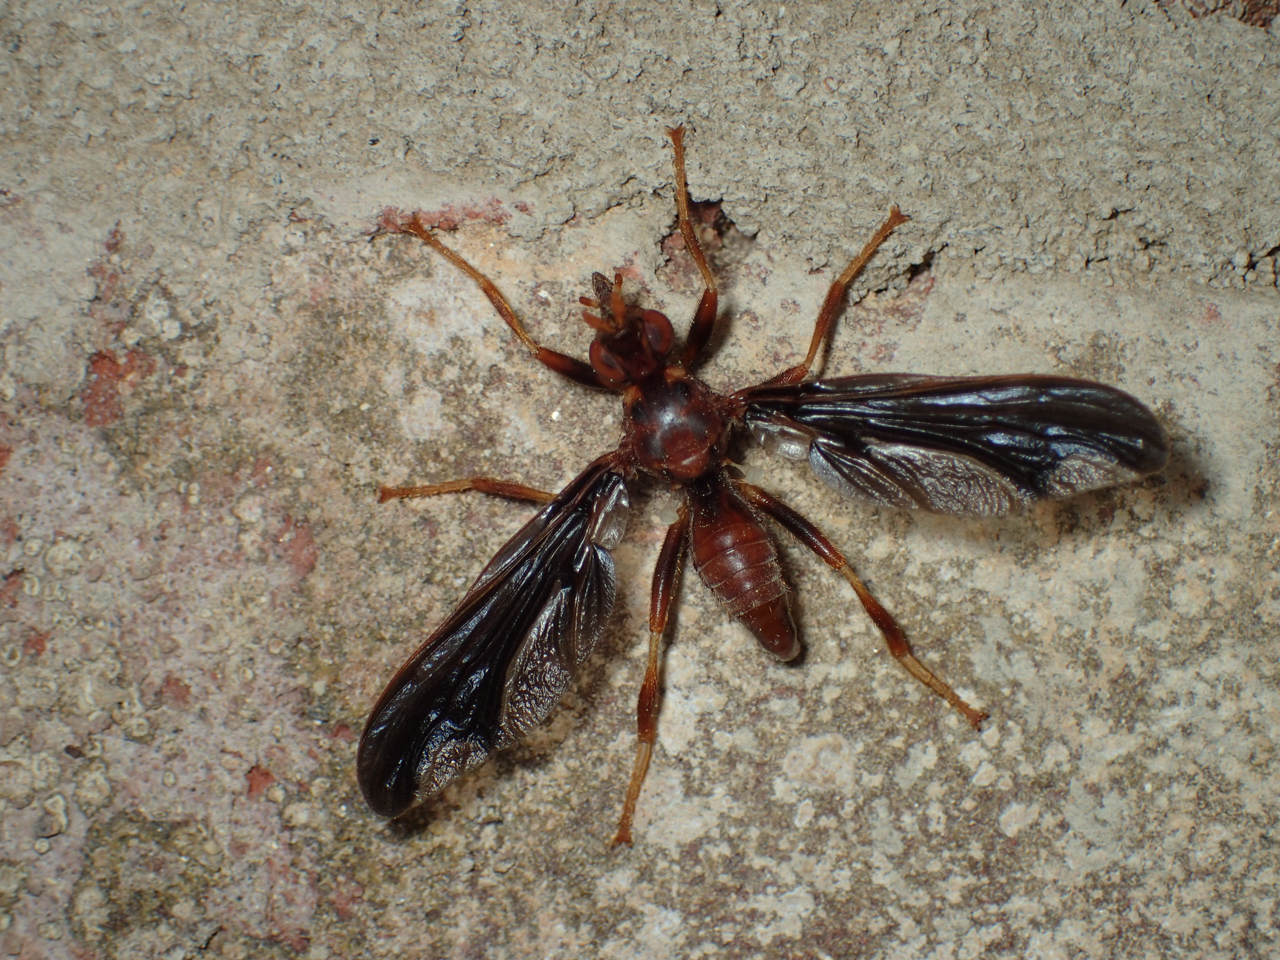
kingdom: Animalia
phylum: Arthropoda
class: Insecta
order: Diptera
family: Pyrgotidae
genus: Pyrgota
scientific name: Pyrgota undata
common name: Waved light fly
